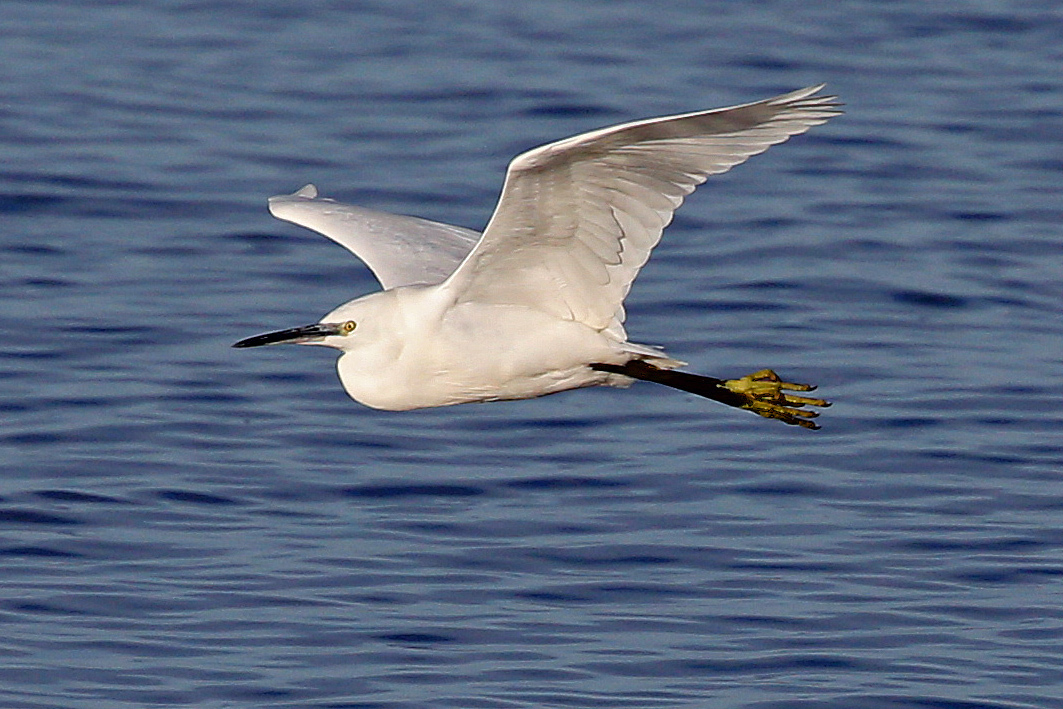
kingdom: Animalia
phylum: Chordata
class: Aves
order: Pelecaniformes
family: Ardeidae
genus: Egretta
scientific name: Egretta garzetta
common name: Little egret
